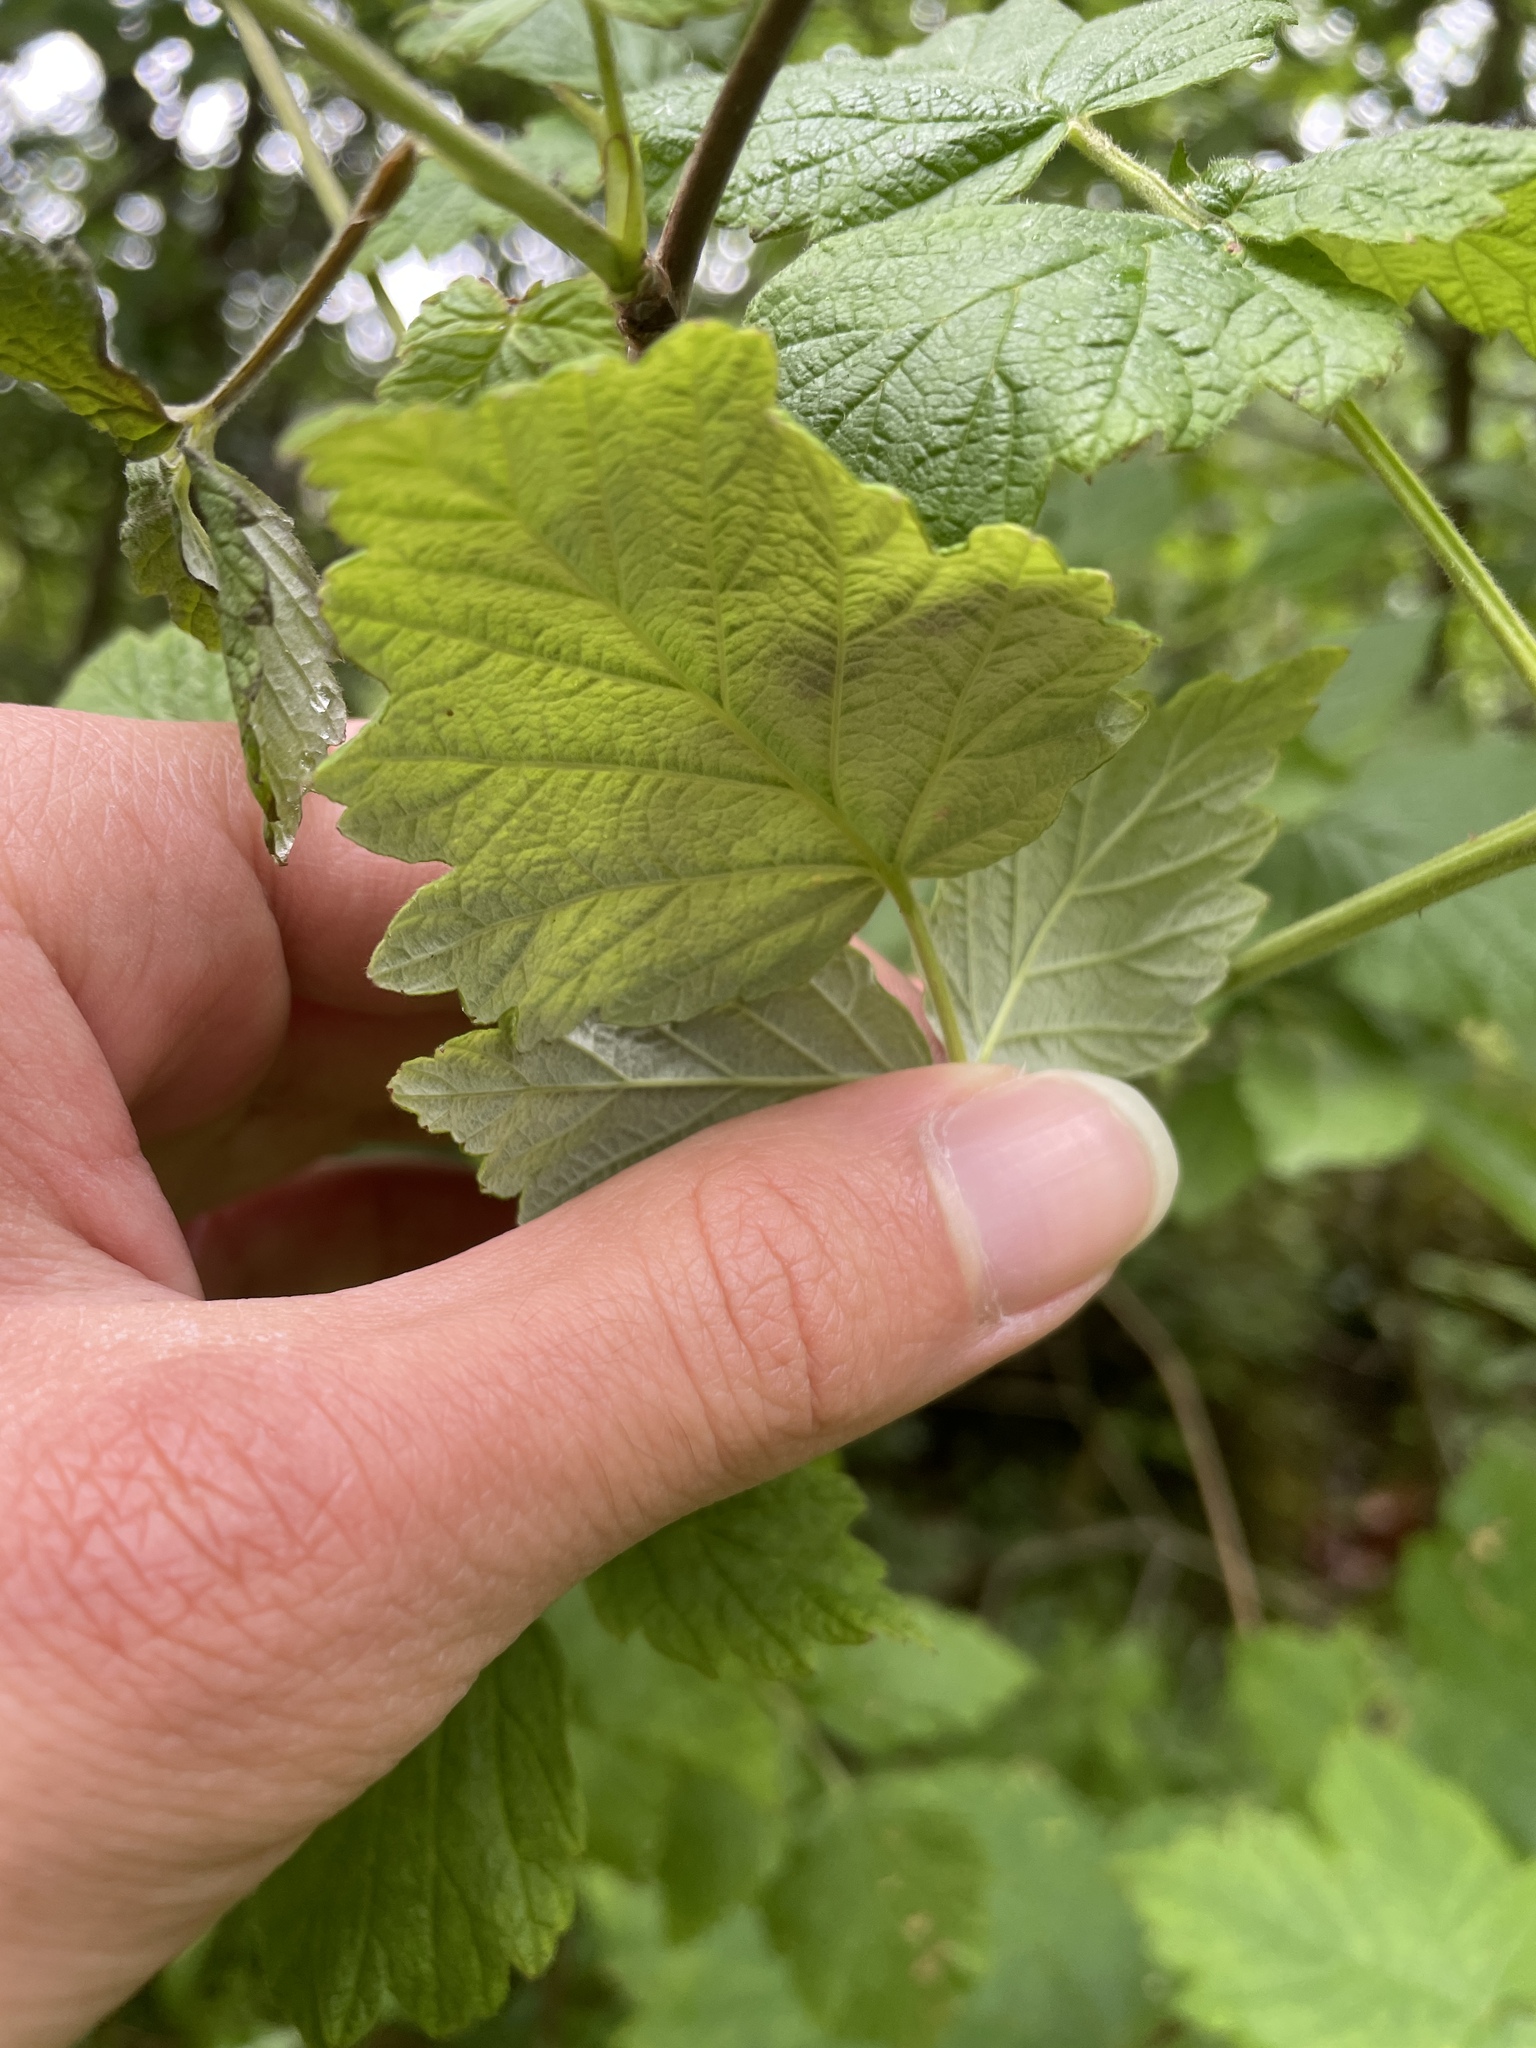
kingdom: Plantae
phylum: Tracheophyta
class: Magnoliopsida
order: Rosales
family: Rosaceae
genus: Rubus
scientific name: Rubus idaeus
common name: Raspberry
